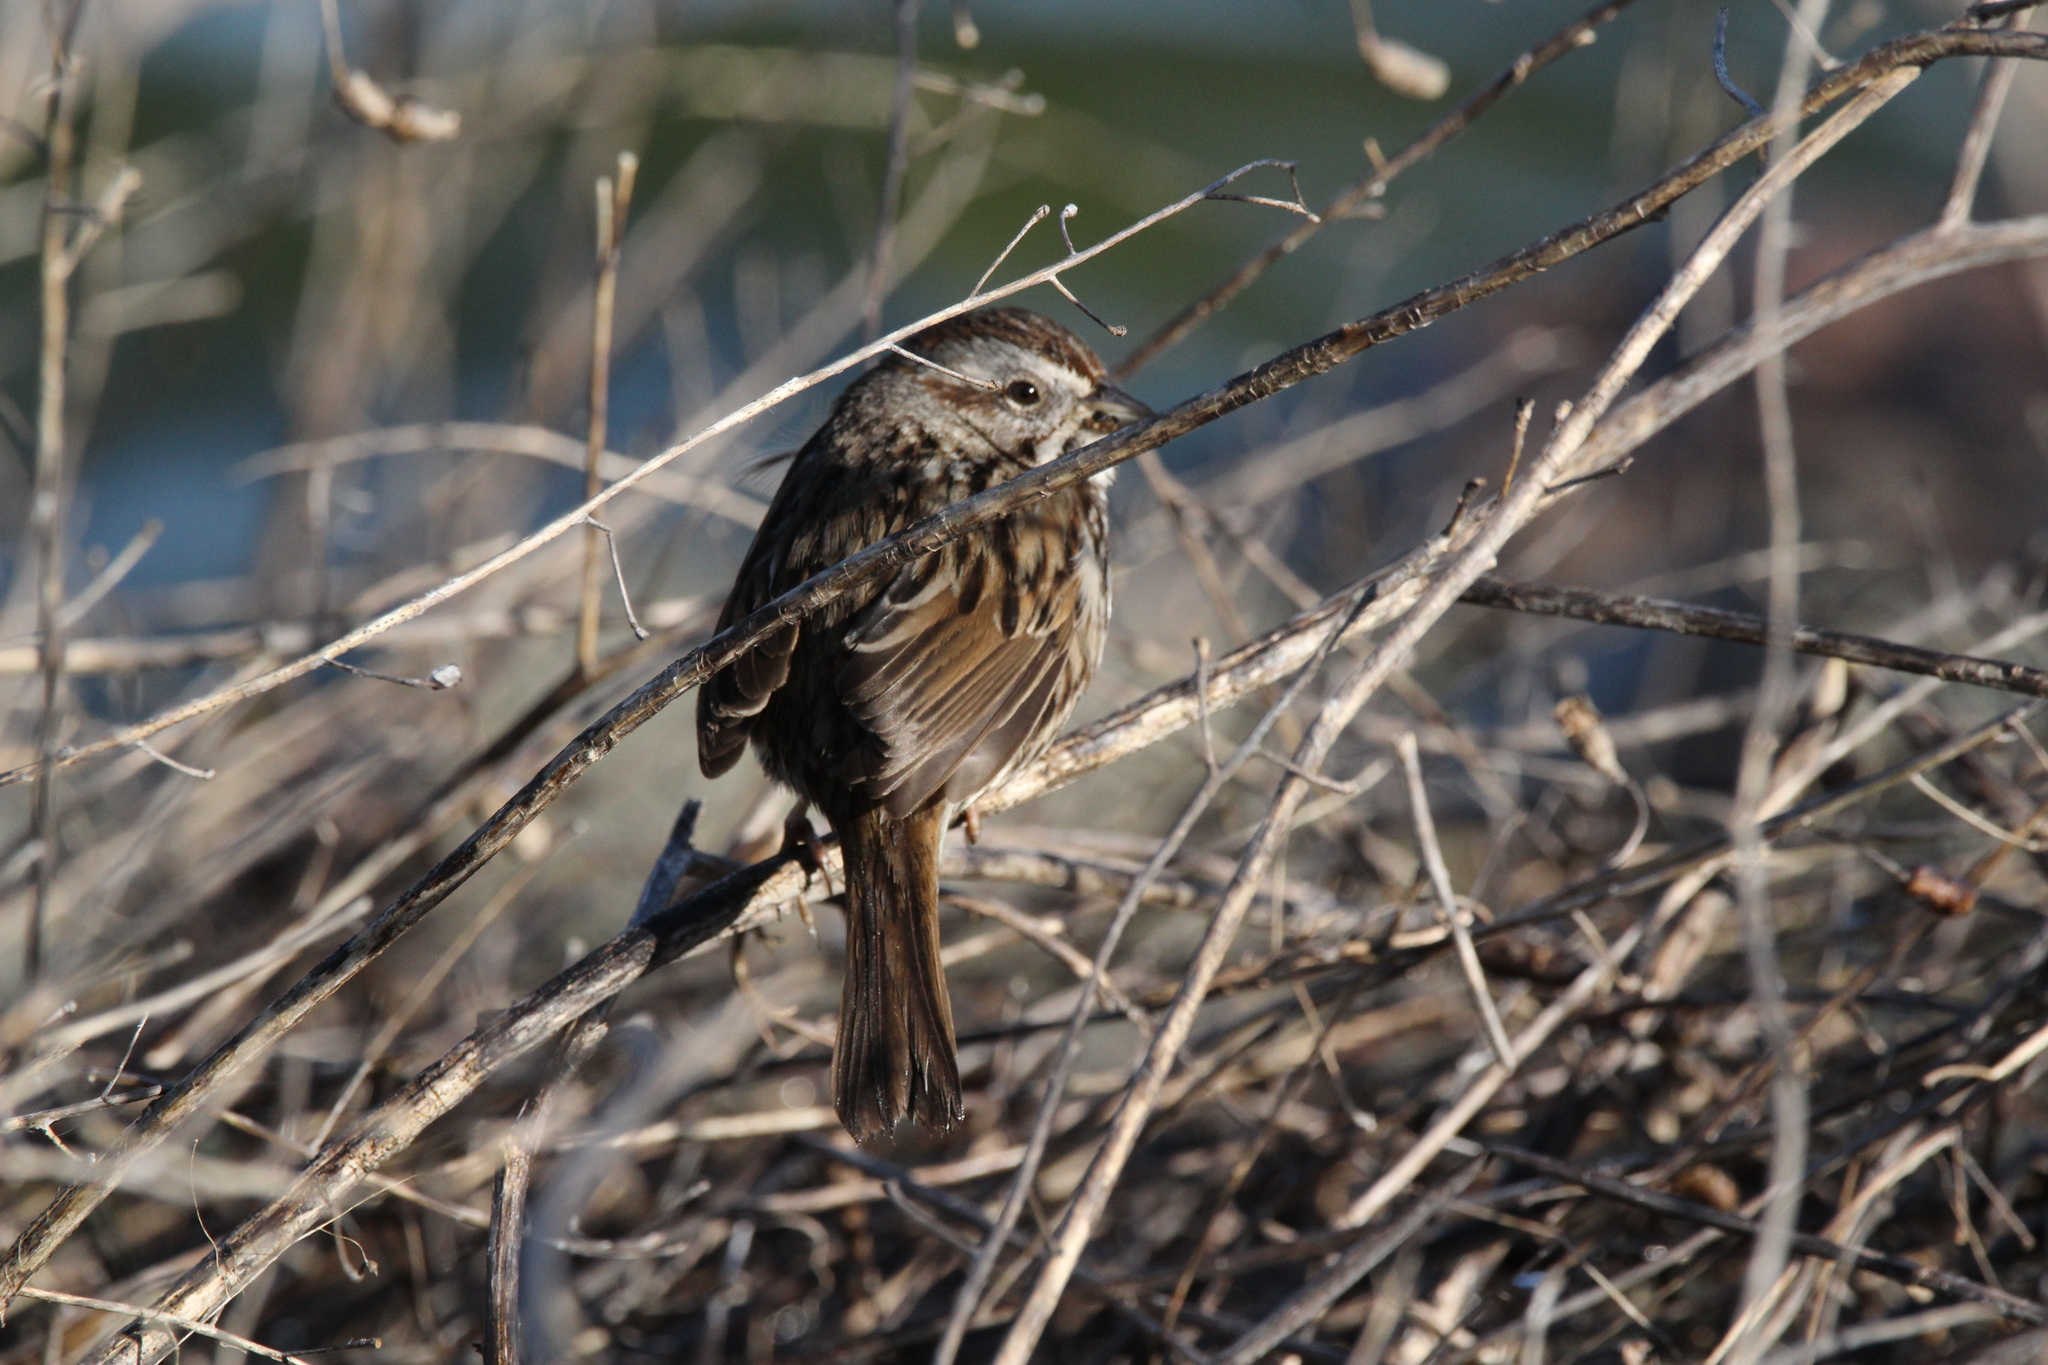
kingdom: Animalia
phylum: Chordata
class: Aves
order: Passeriformes
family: Passerellidae
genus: Melospiza
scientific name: Melospiza melodia
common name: Song sparrow
